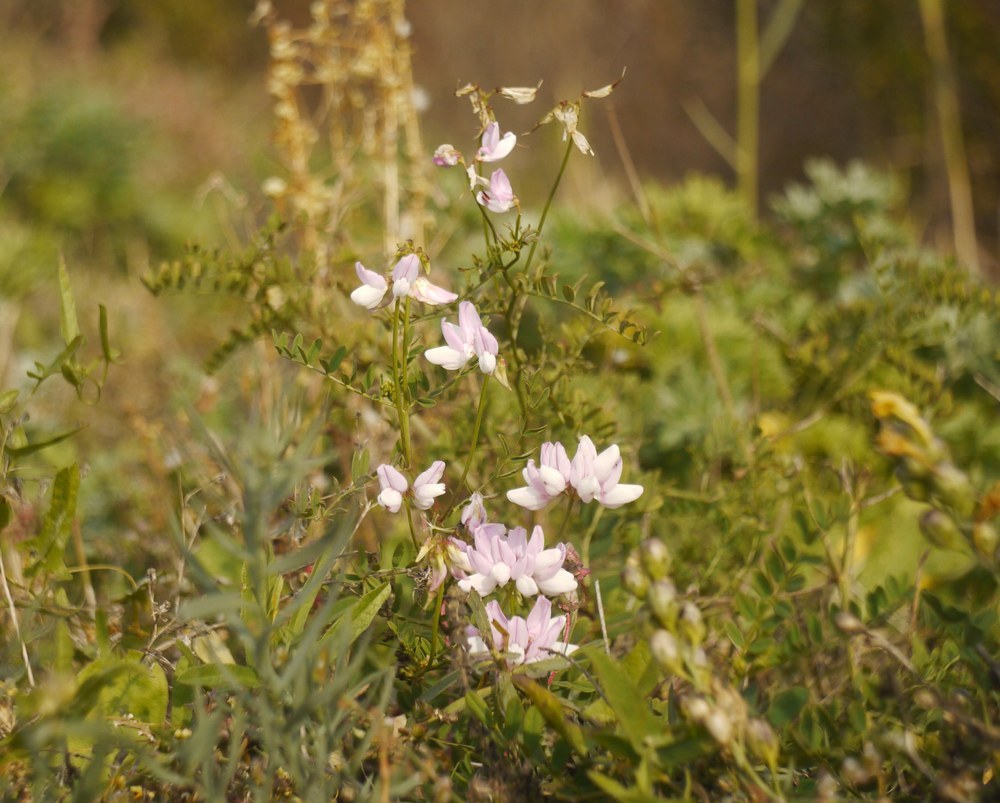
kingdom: Plantae
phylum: Tracheophyta
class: Magnoliopsida
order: Fabales
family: Fabaceae
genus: Coronilla
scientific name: Coronilla varia
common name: Crownvetch
